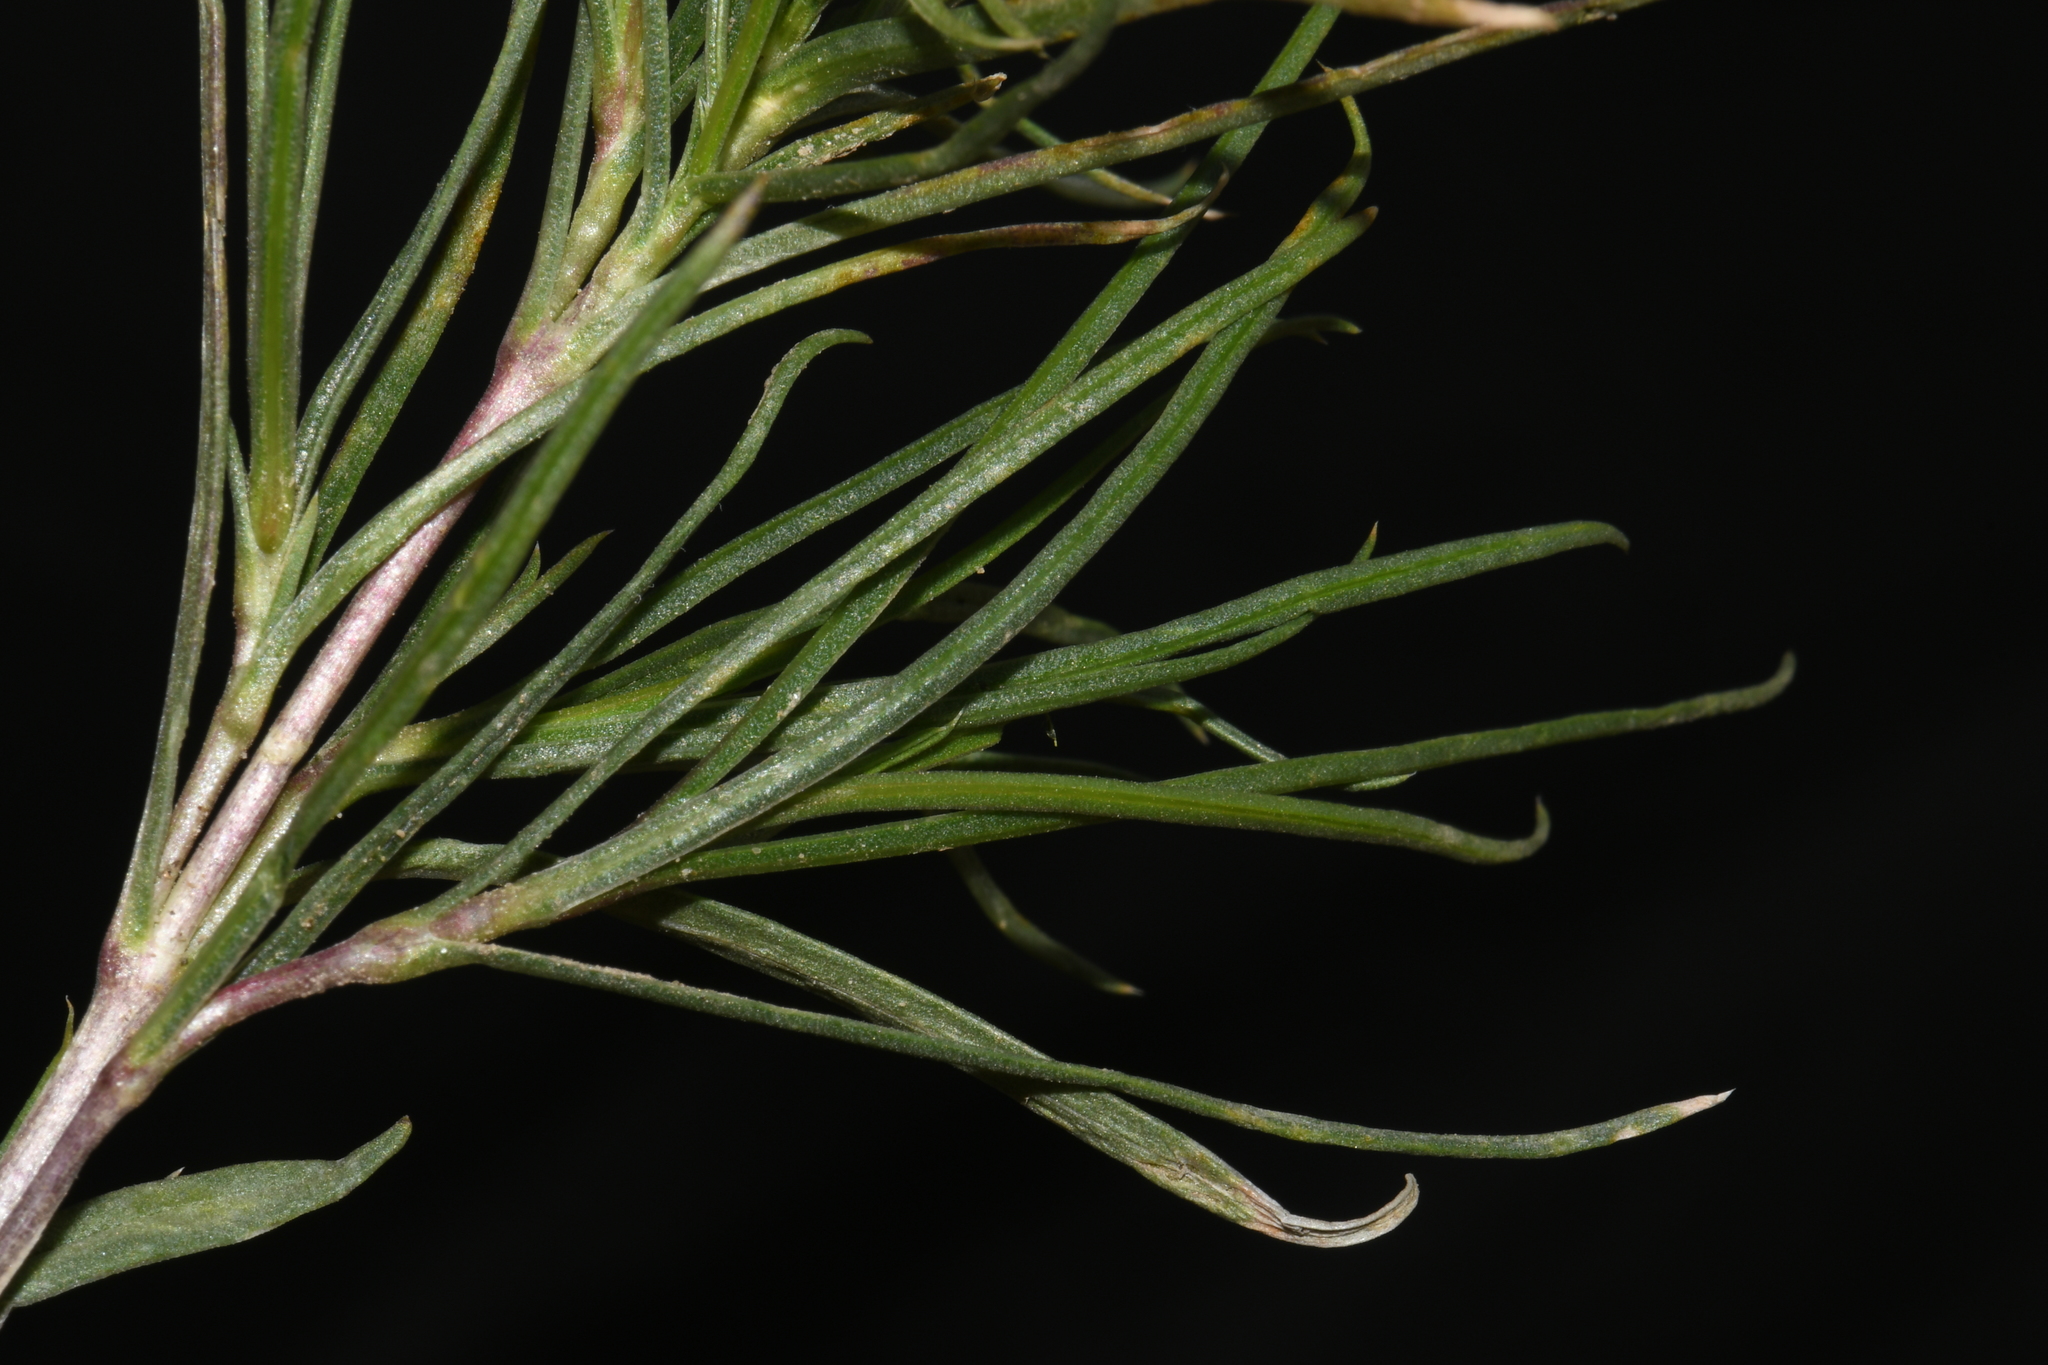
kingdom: Plantae
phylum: Tracheophyta
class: Magnoliopsida
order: Ericales
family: Polemoniaceae
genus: Phlox
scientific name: Phlox longifolia
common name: Longleaf phlox
